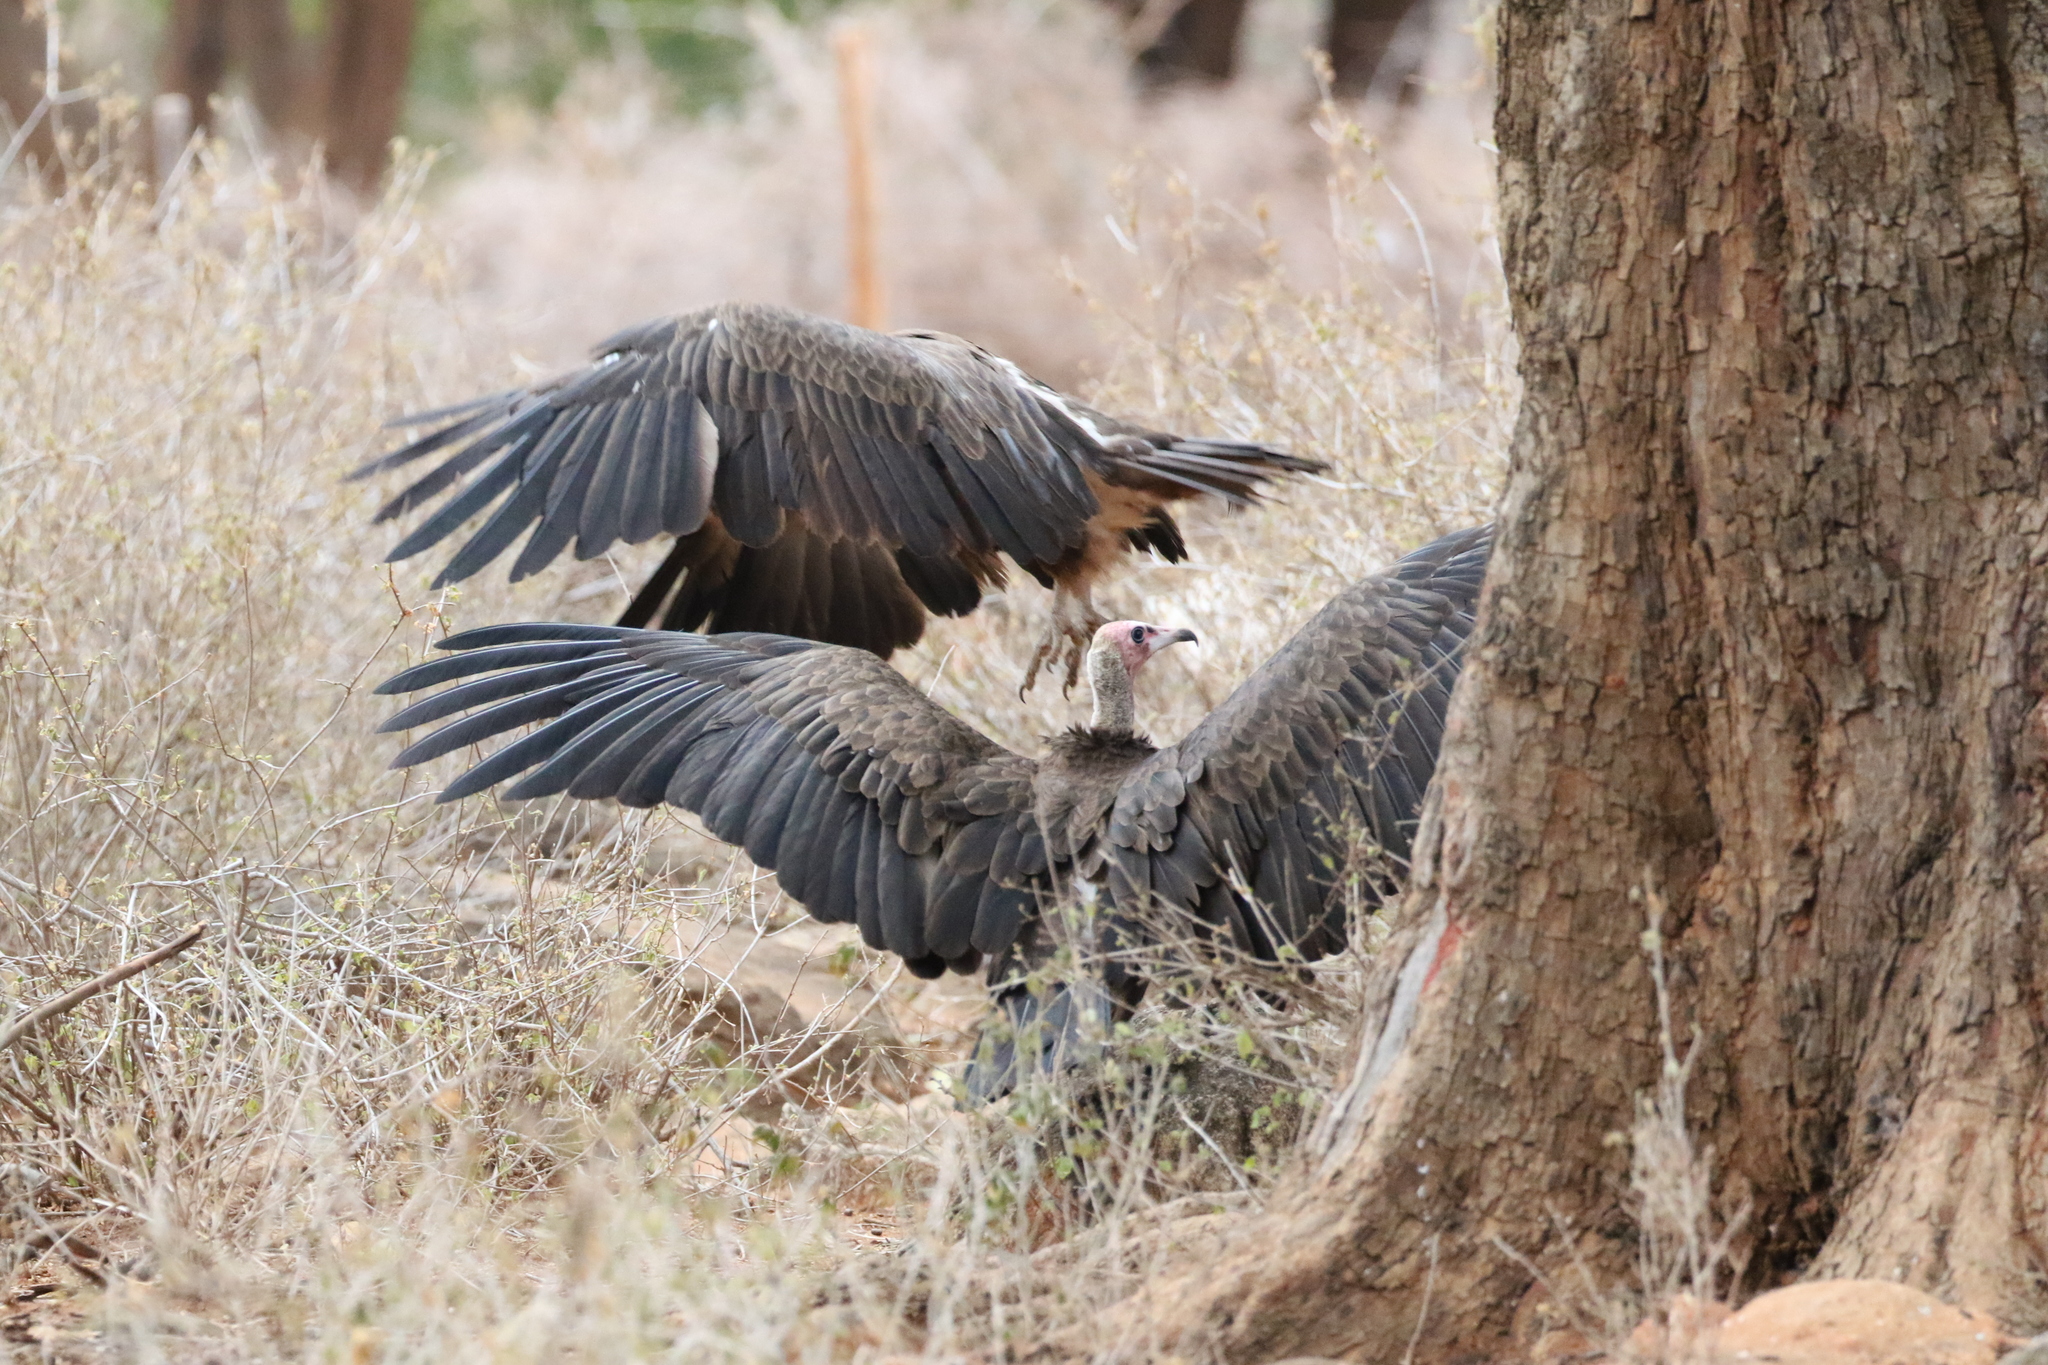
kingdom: Animalia
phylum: Chordata
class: Aves
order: Accipitriformes
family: Accipitridae
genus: Necrosyrtes
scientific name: Necrosyrtes monachus
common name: Hooded vulture
